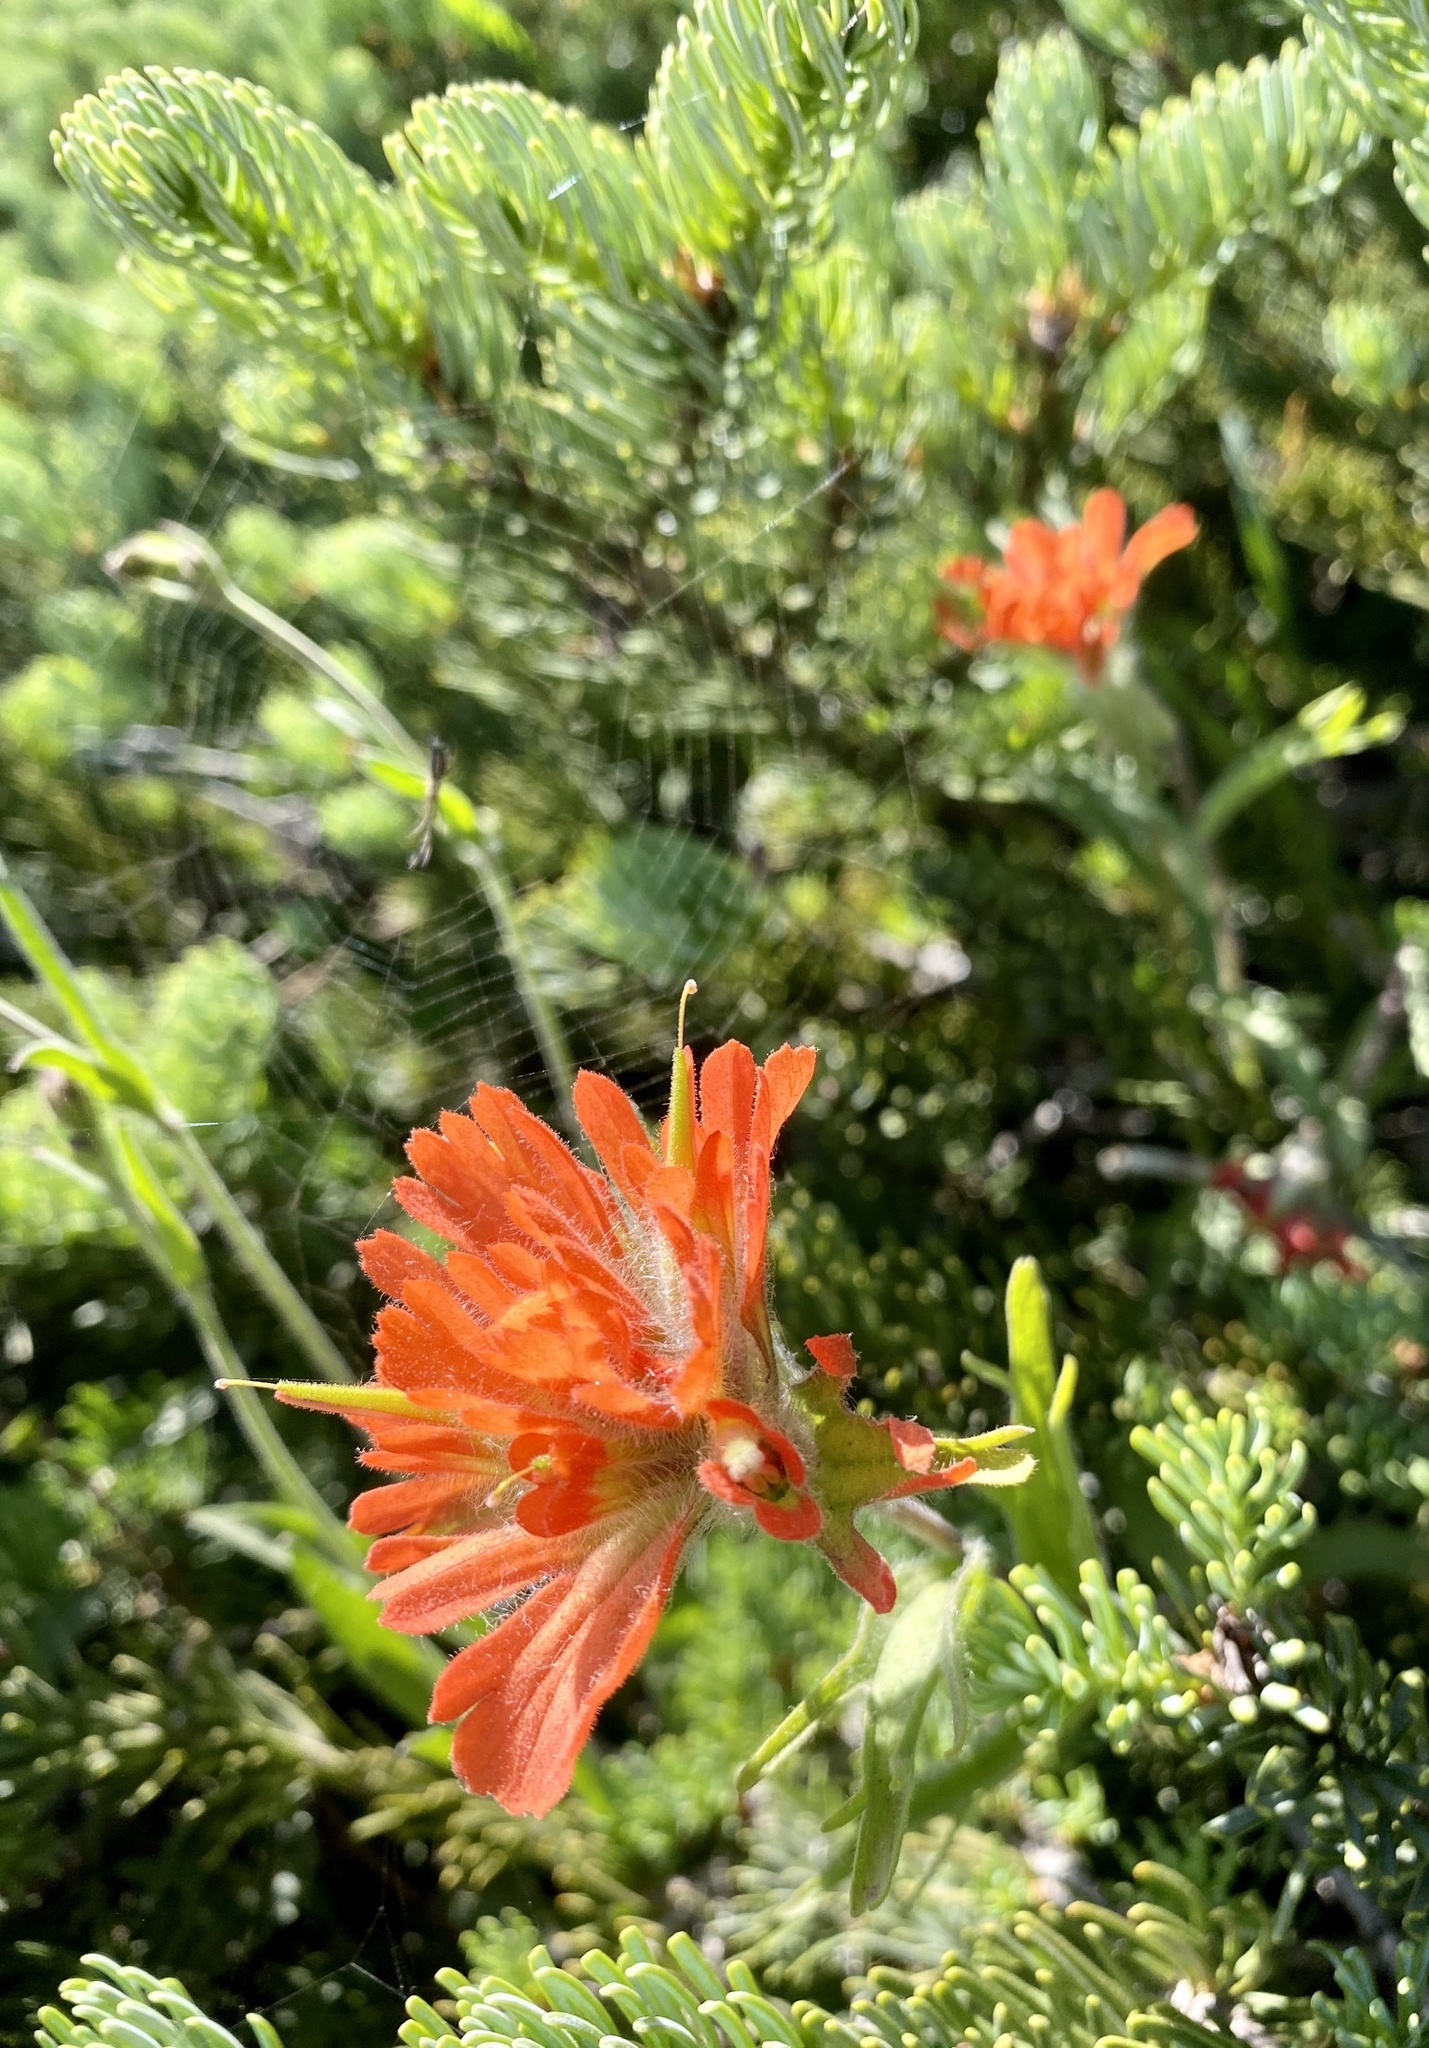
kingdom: Plantae
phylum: Tracheophyta
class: Magnoliopsida
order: Lamiales
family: Orobanchaceae
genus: Castilleja
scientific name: Castilleja hispida
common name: Bristly paintbrush
